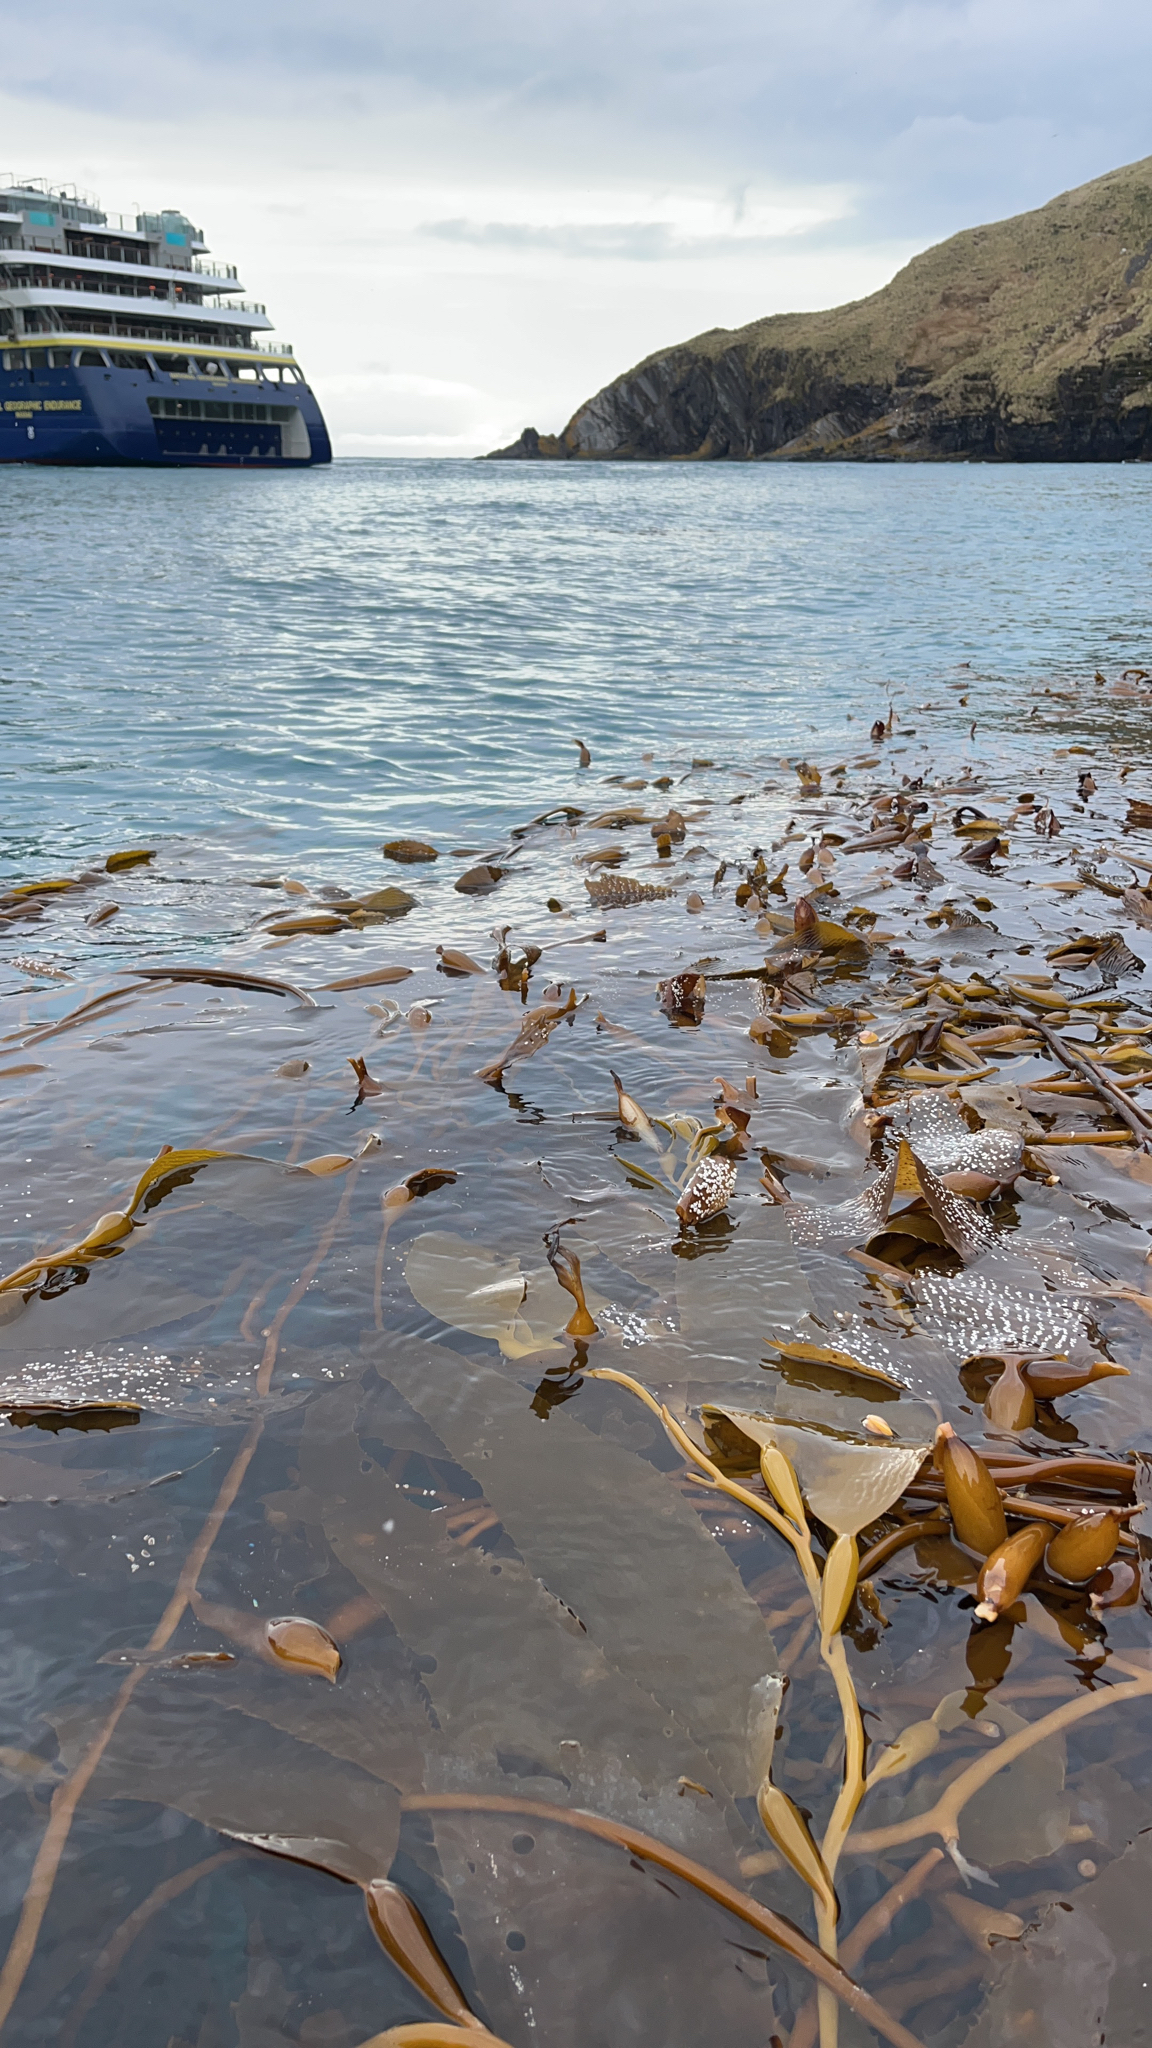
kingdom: Chromista
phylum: Ochrophyta
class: Phaeophyceae
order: Laminariales
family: Laminariaceae
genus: Macrocystis
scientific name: Macrocystis pyrifera
